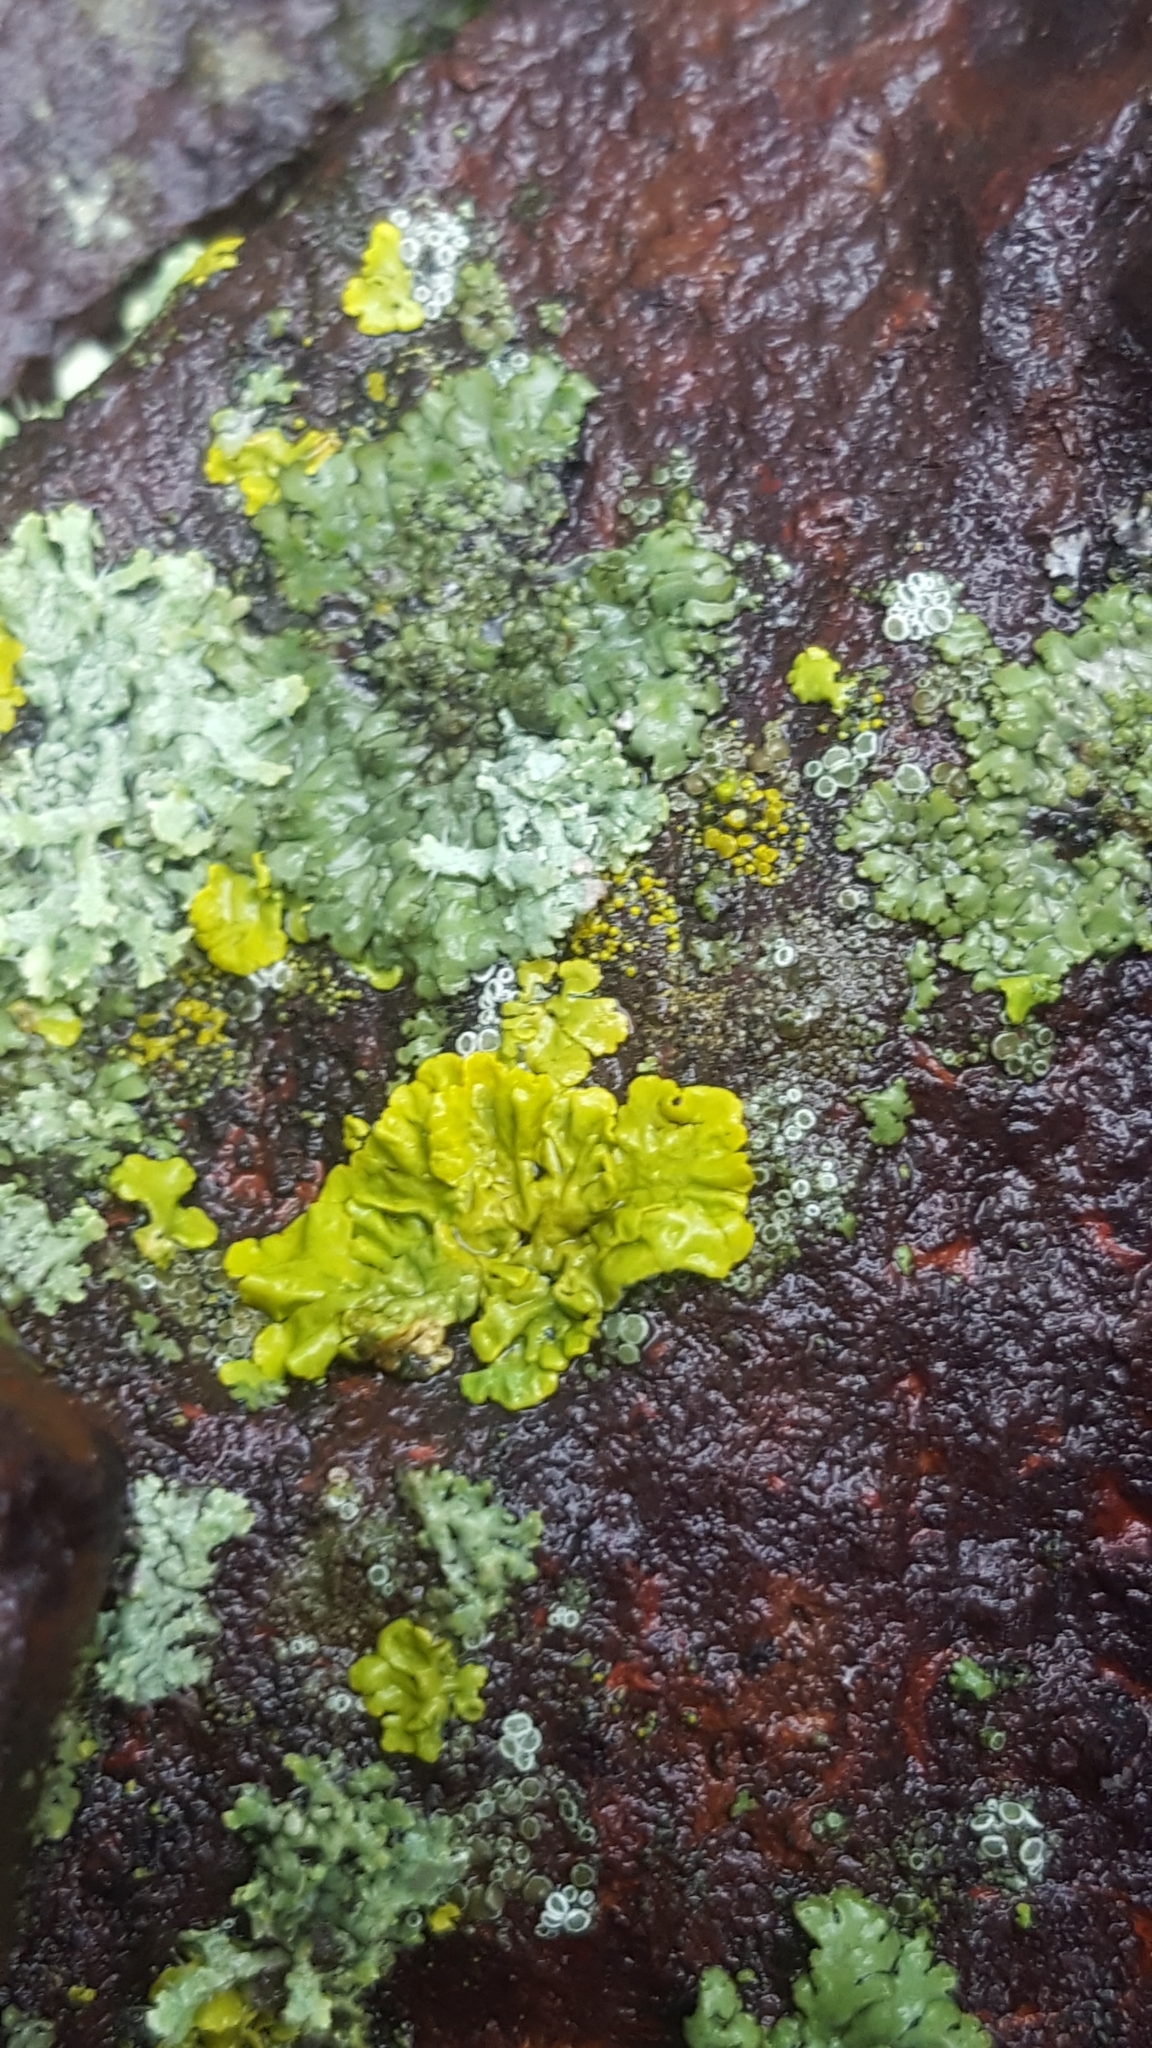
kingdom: Fungi
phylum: Ascomycota
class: Lecanoromycetes
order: Teloschistales
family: Teloschistaceae
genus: Xanthoria
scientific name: Xanthoria parietina
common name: Common orange lichen
